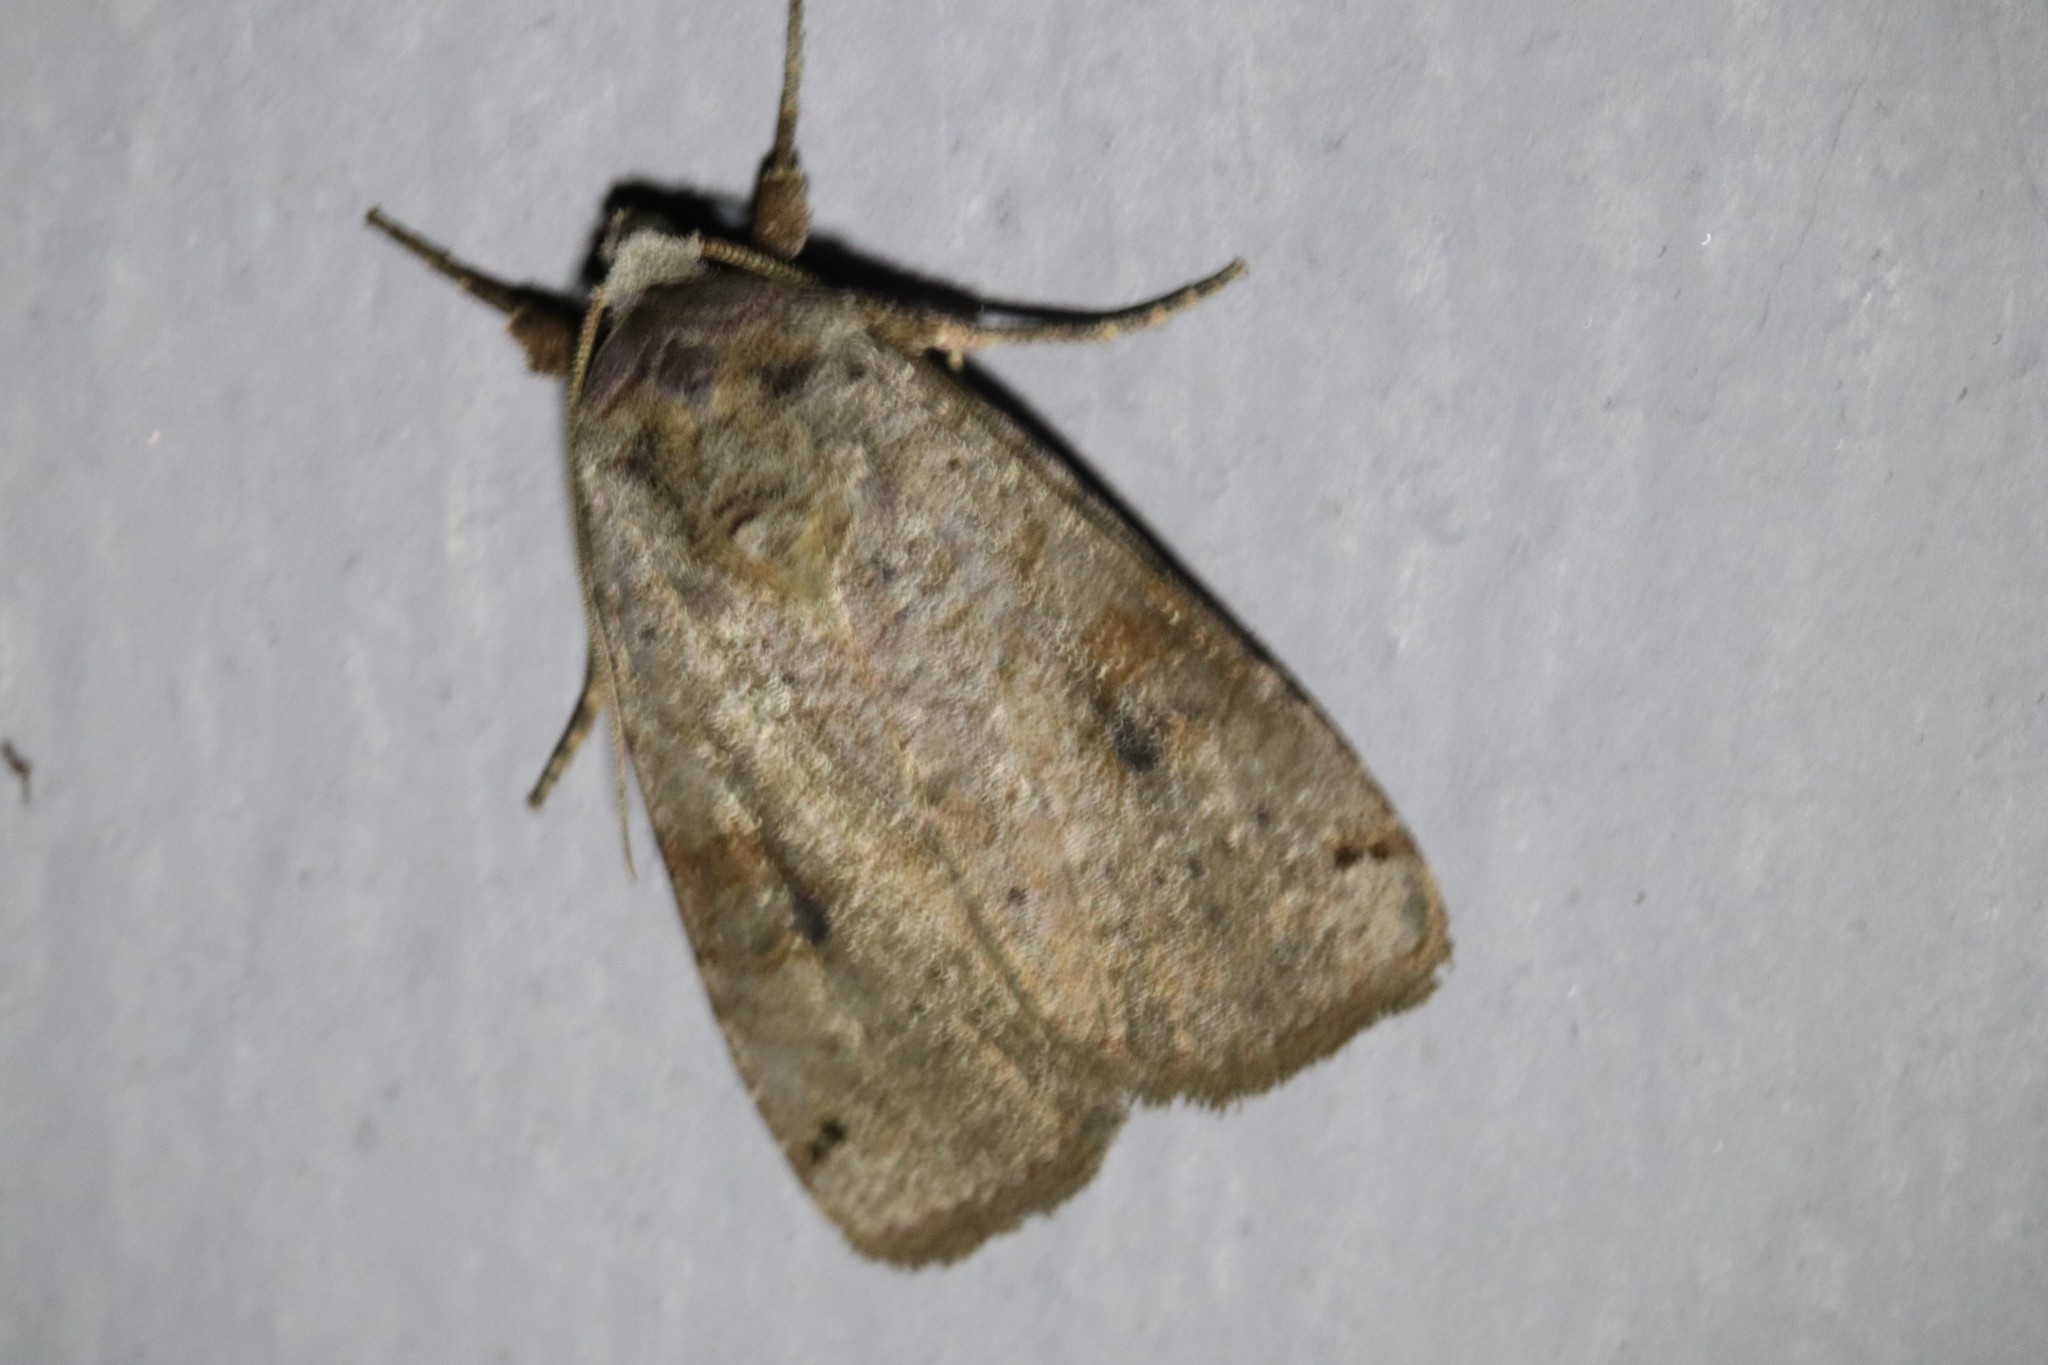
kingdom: Animalia
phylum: Arthropoda
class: Insecta
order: Lepidoptera
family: Noctuidae
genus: Xestia
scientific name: Xestia smithii
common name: Smith's dart
